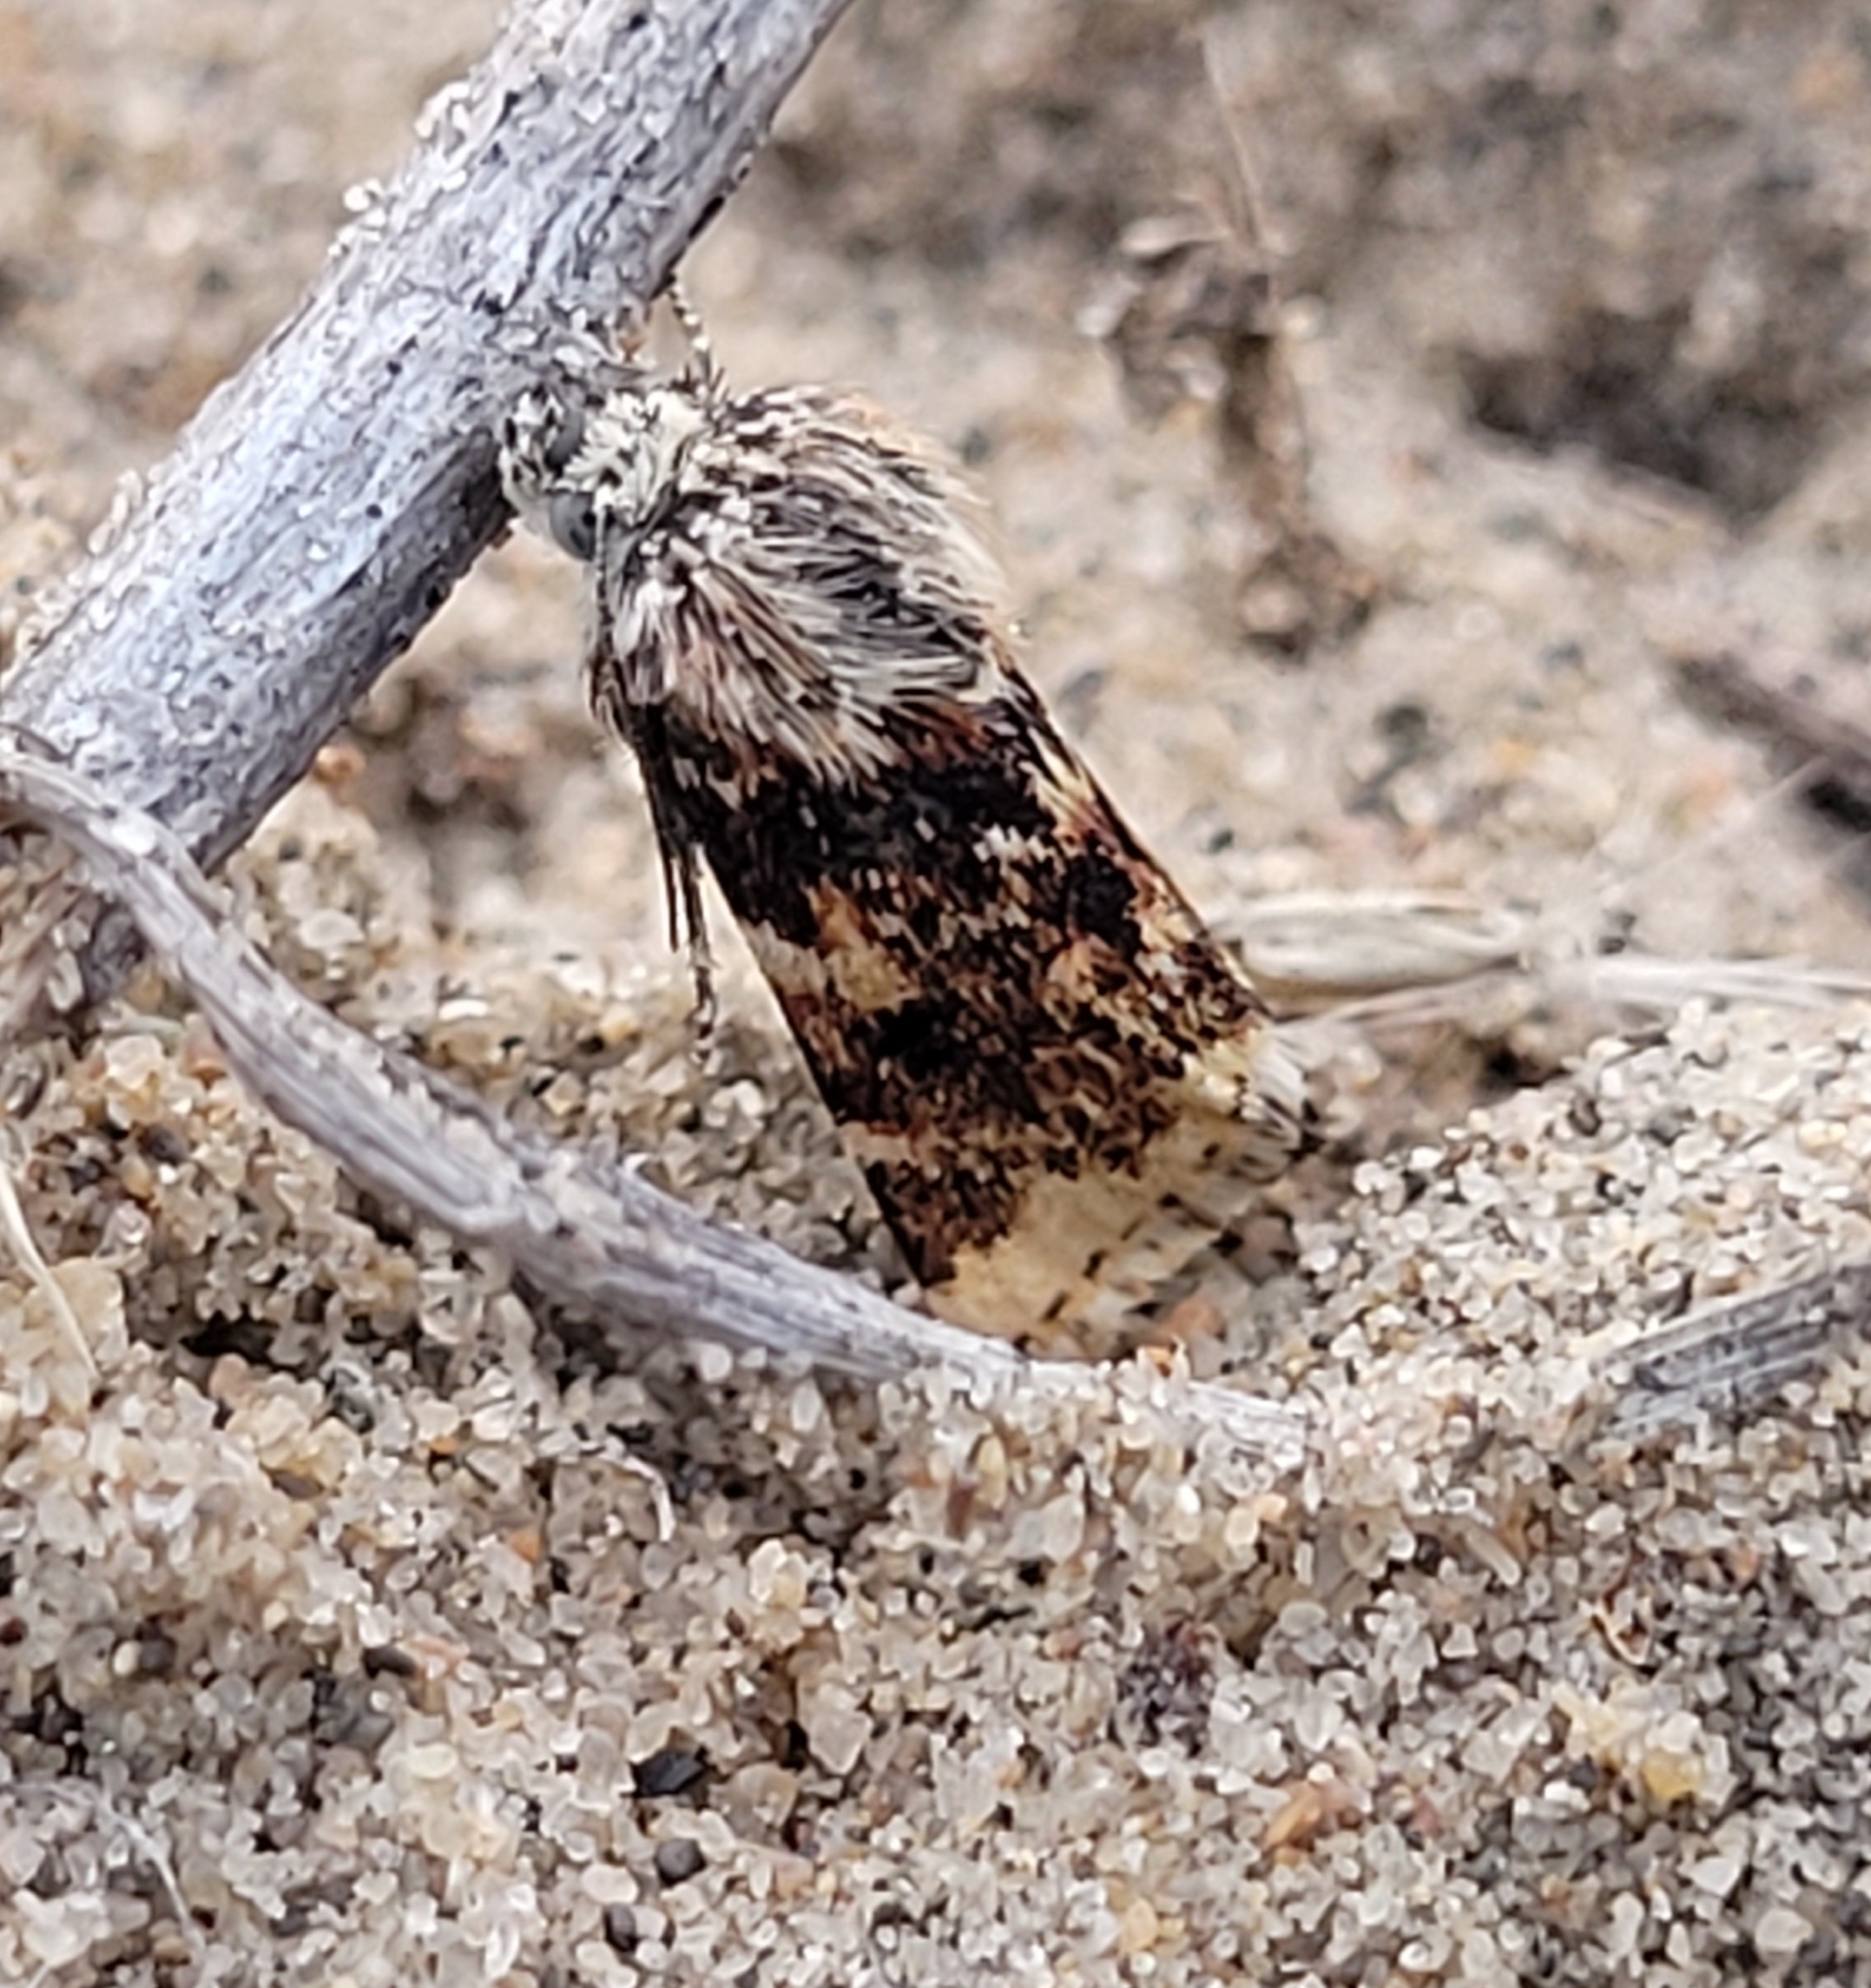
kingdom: Animalia
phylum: Arthropoda
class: Insecta
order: Lepidoptera
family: Noctuidae
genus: Schinia
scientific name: Schinia avemensis
